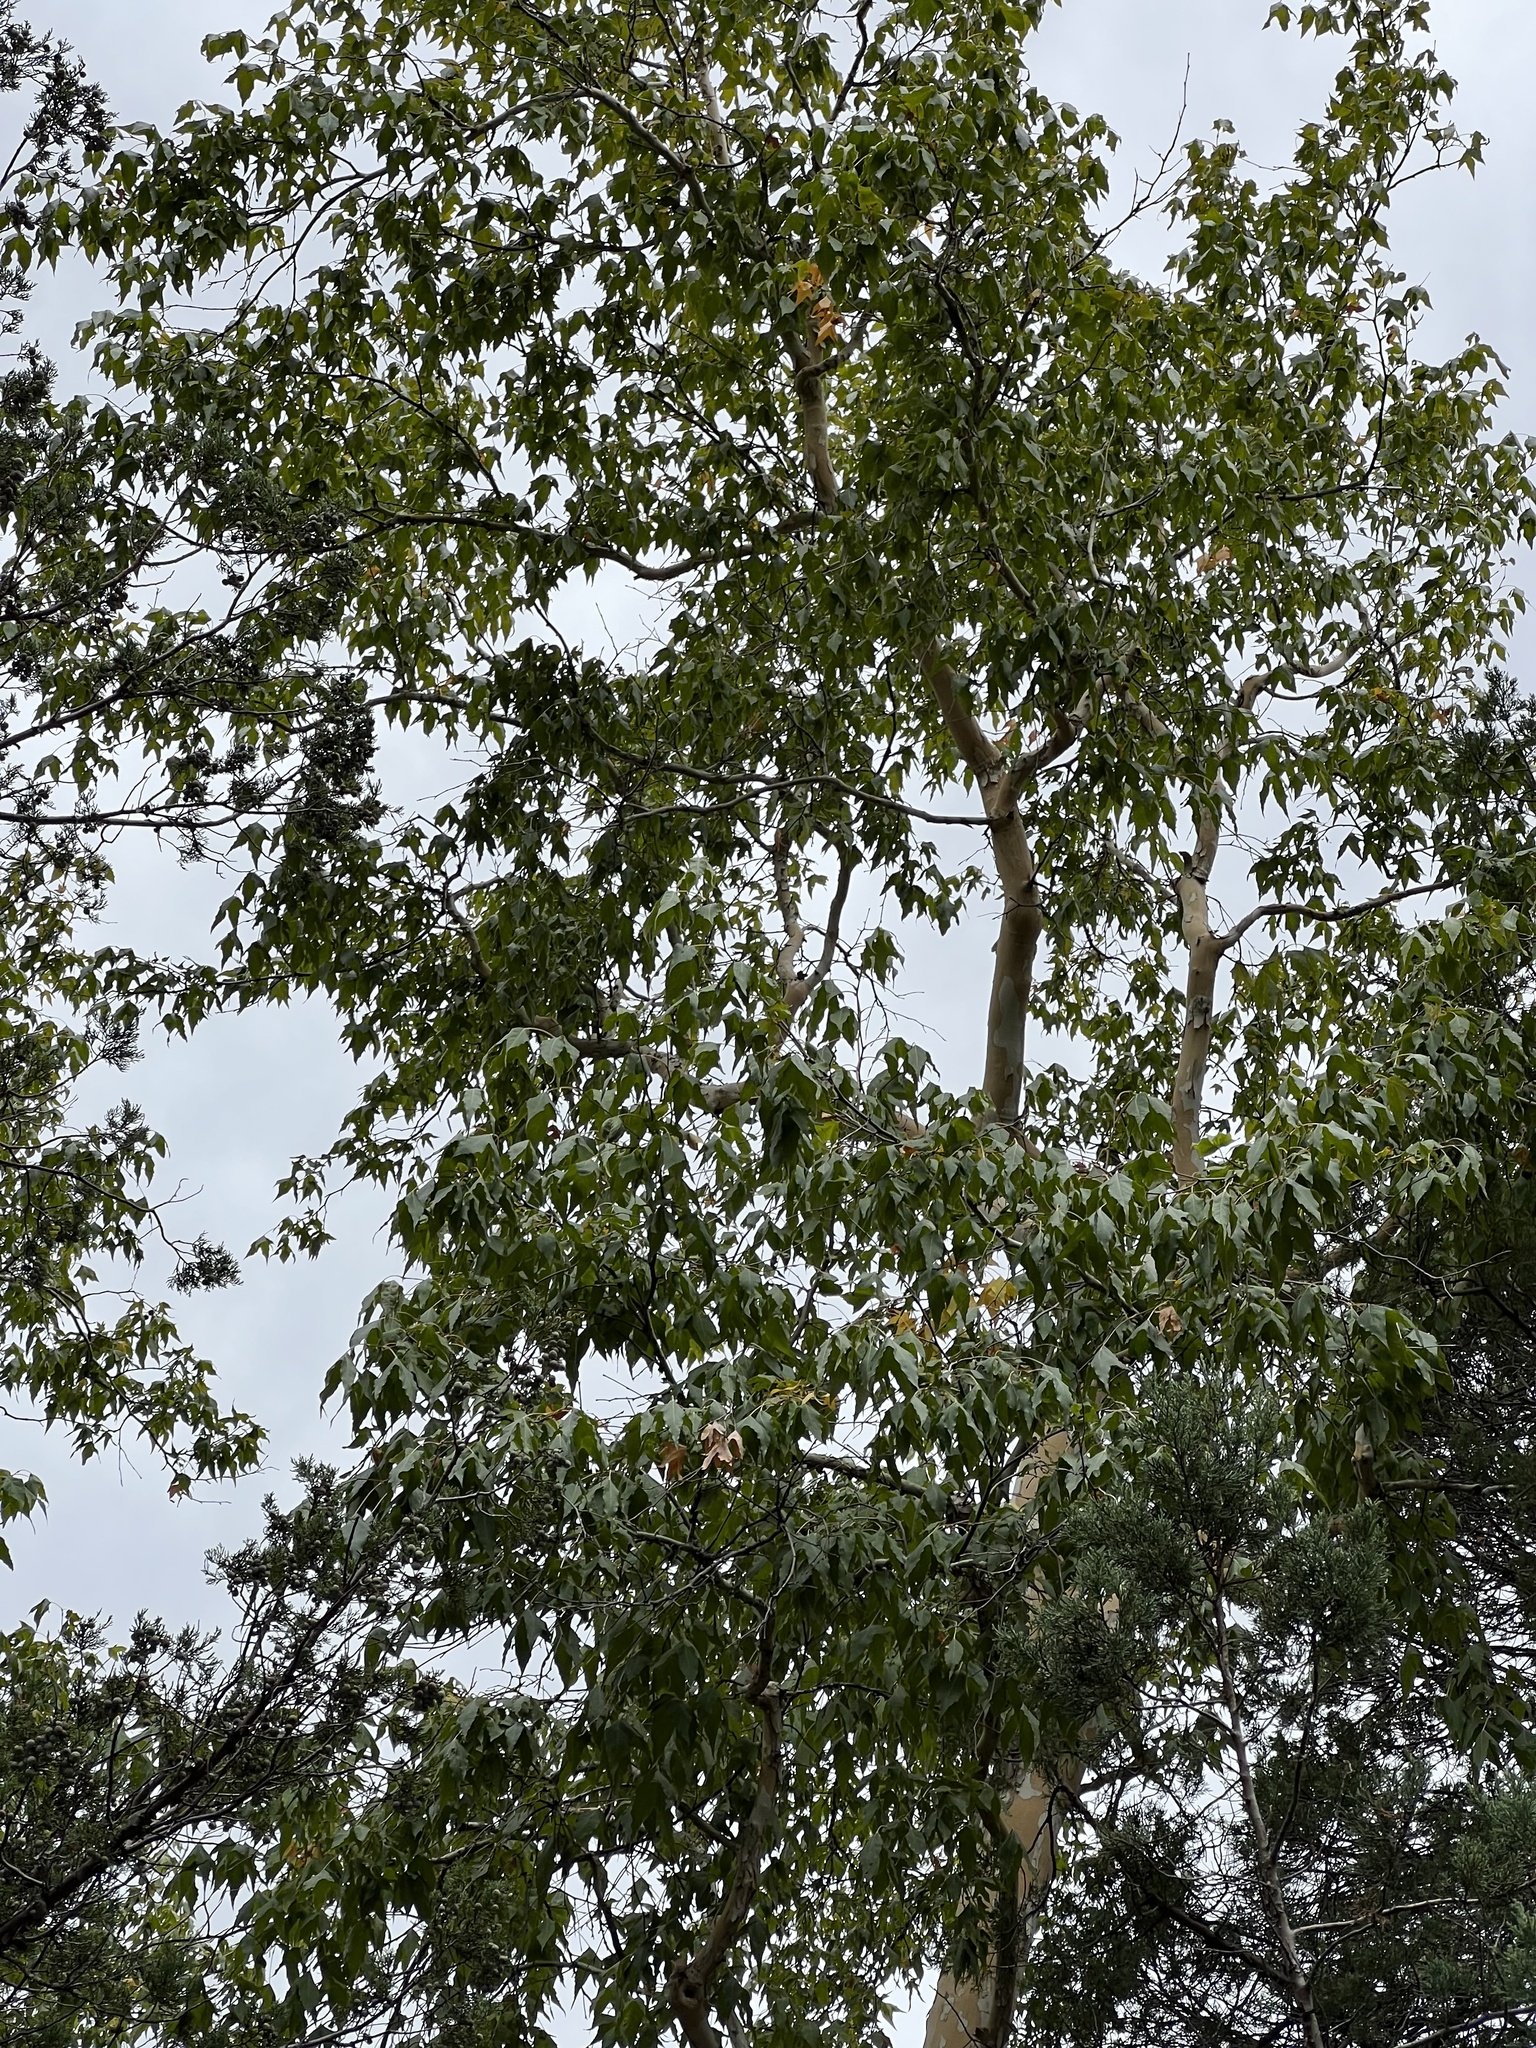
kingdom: Plantae
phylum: Tracheophyta
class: Magnoliopsida
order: Proteales
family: Platanaceae
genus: Platanus
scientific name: Platanus wrightii
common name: Arizona sycamore
